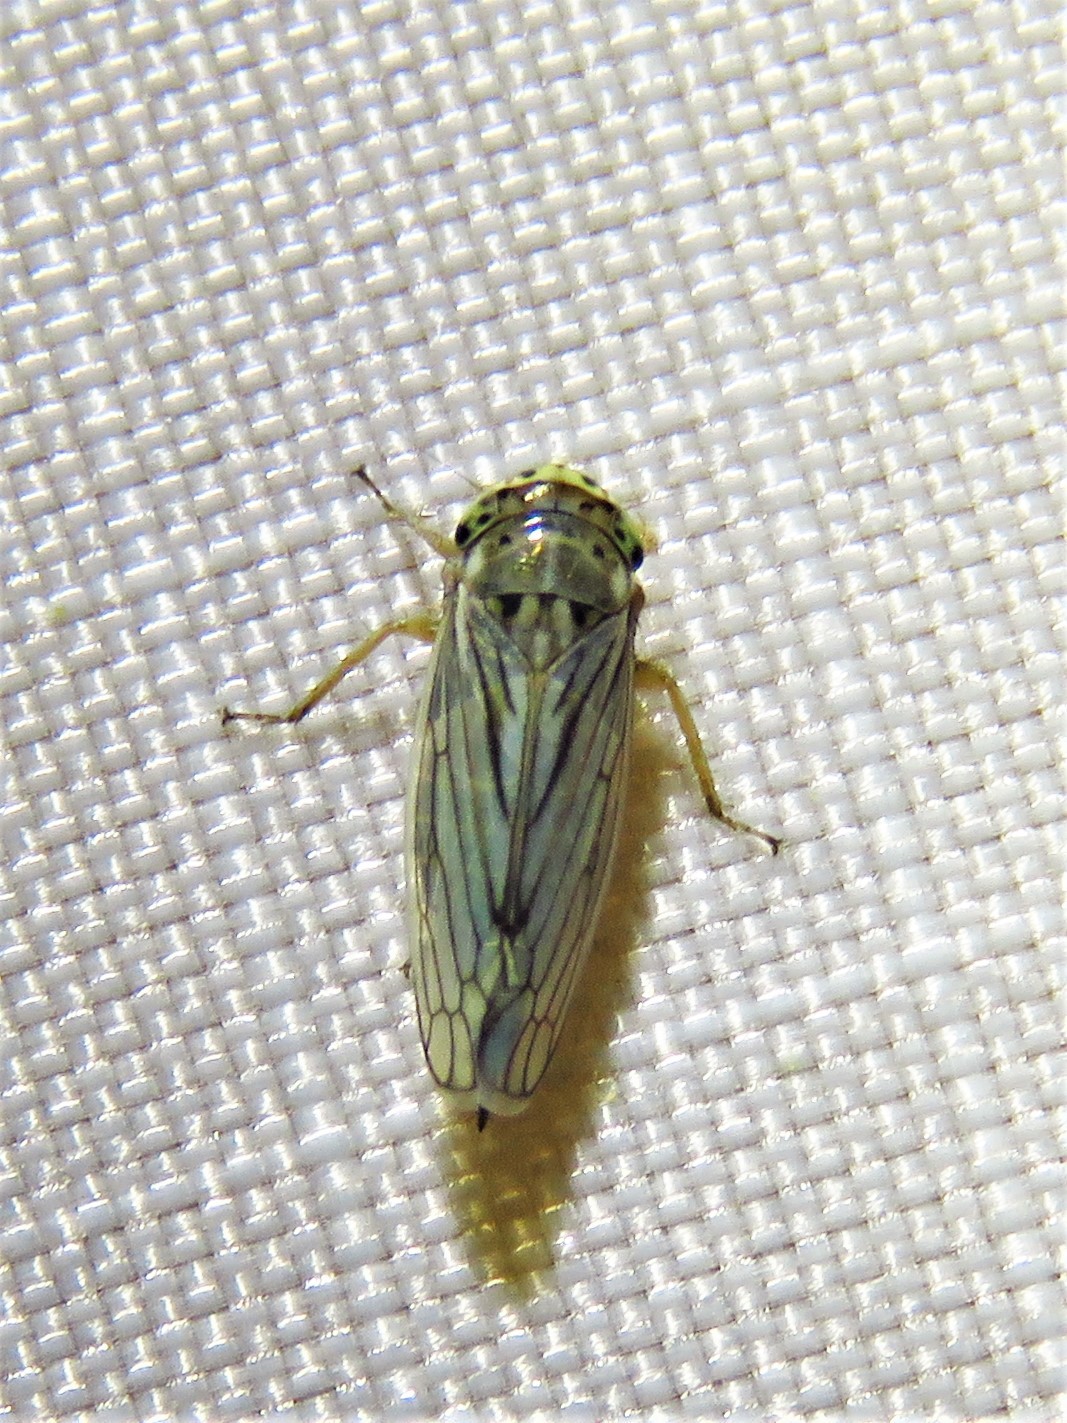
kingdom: Animalia
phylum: Arthropoda
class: Insecta
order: Hemiptera
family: Cicadellidae
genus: Exitianus
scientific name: Exitianus exitiosus
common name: Gray lawn leafhopper
